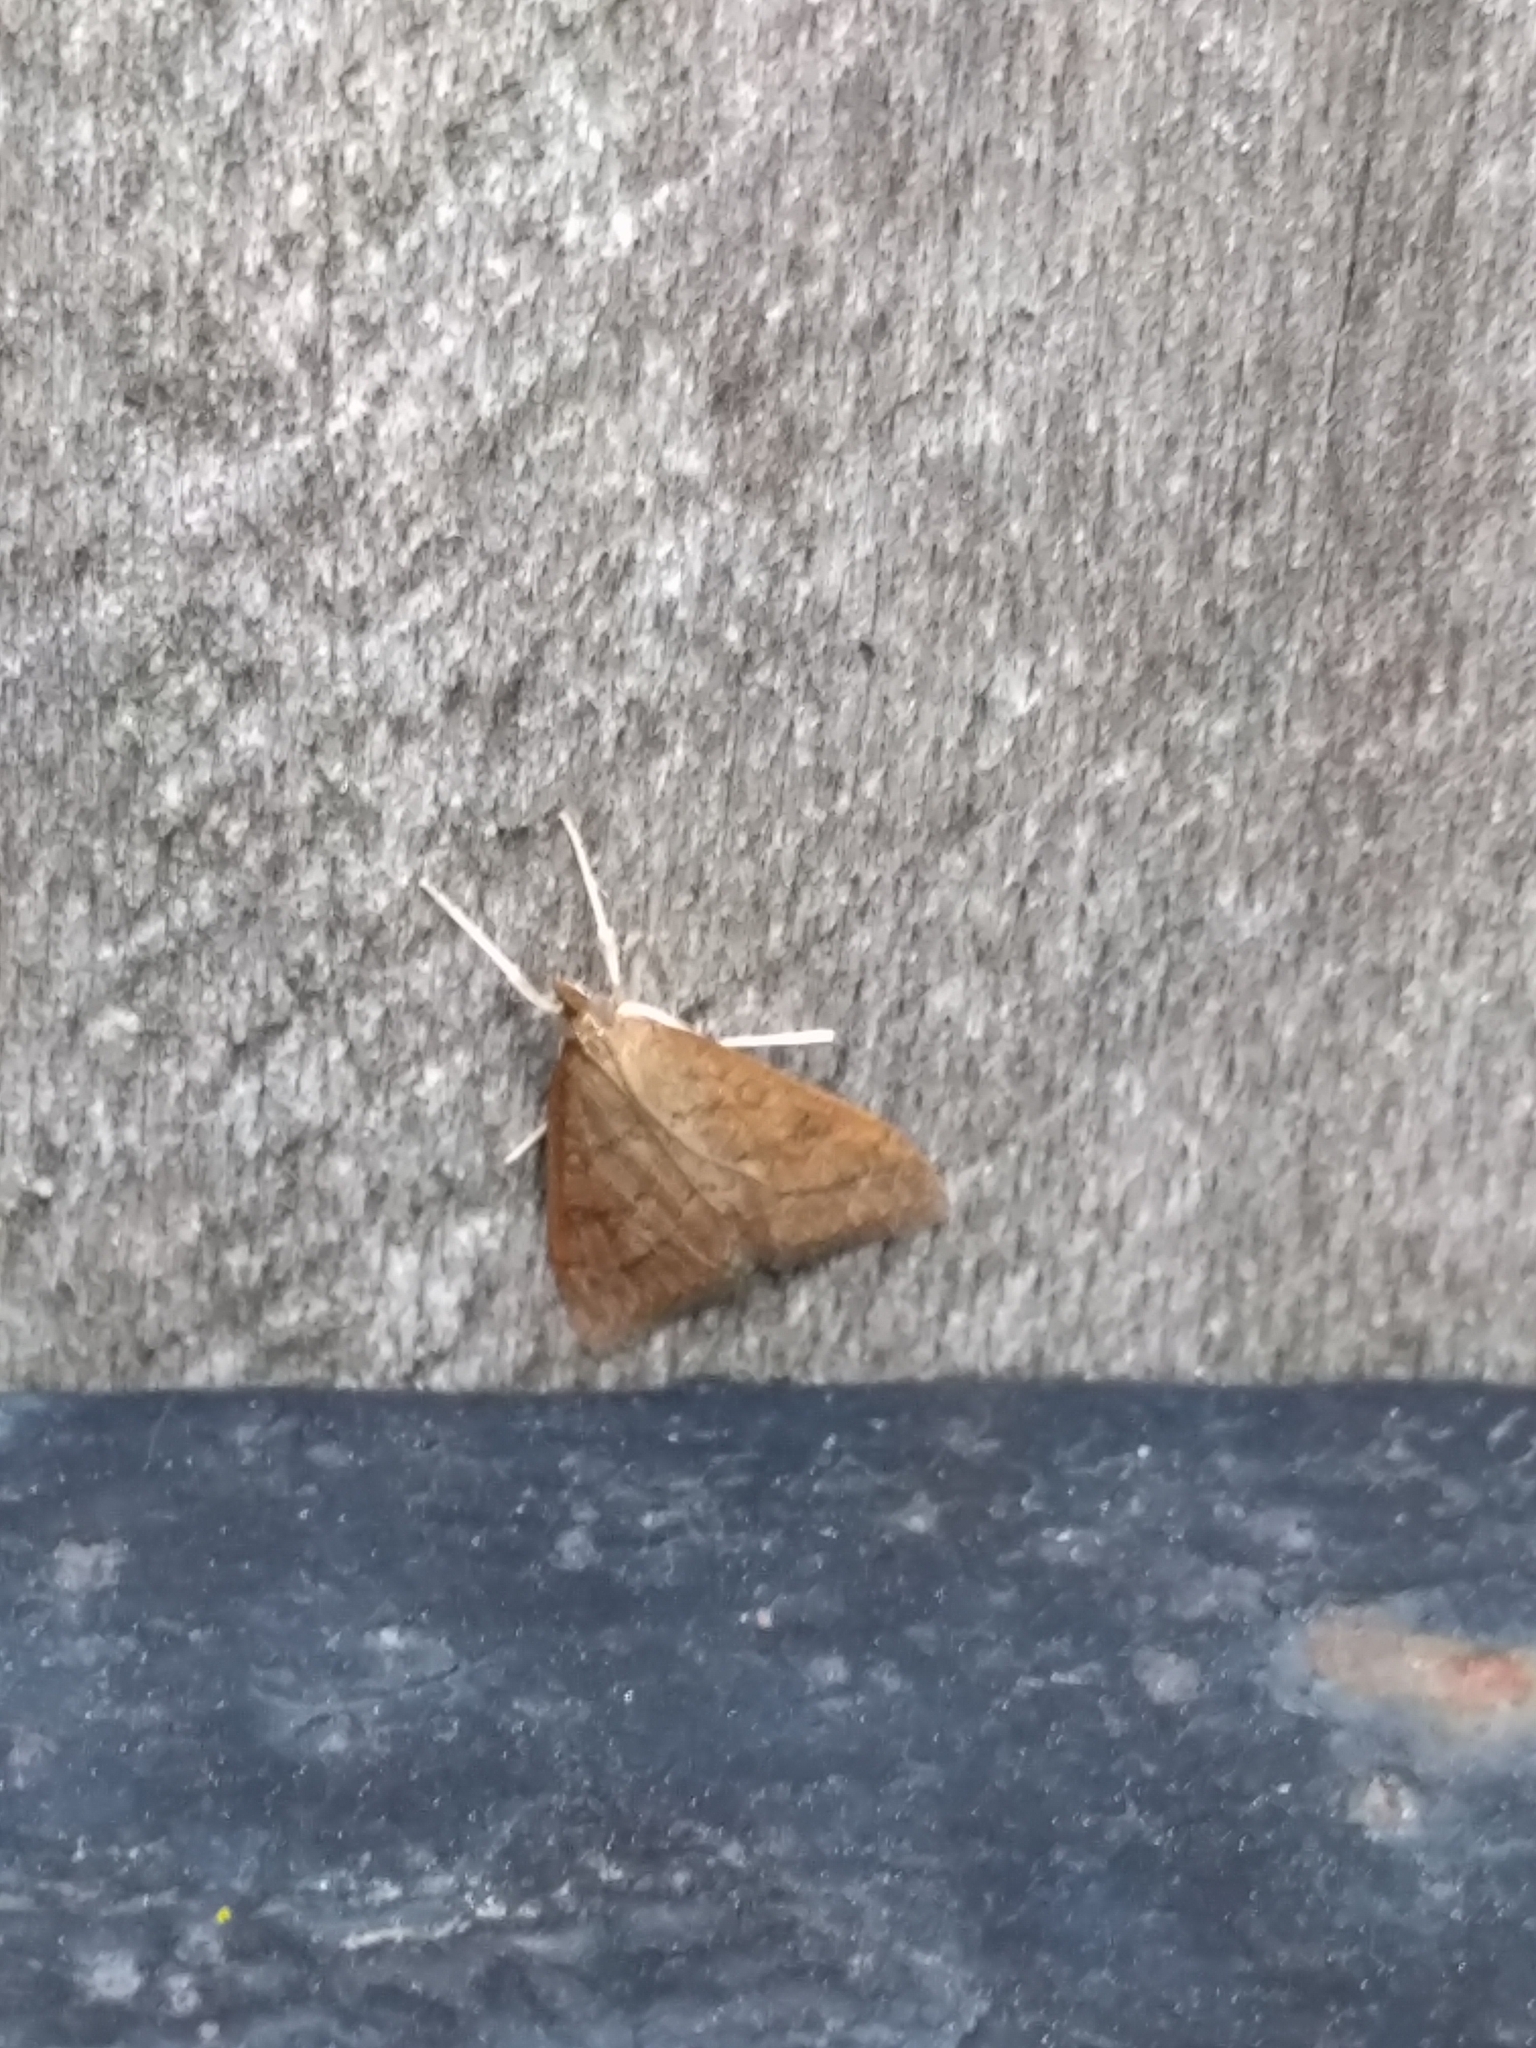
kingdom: Animalia
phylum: Arthropoda
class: Insecta
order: Lepidoptera
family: Crambidae
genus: Udea
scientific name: Udea rubigalis
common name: Celery leaftier moth
